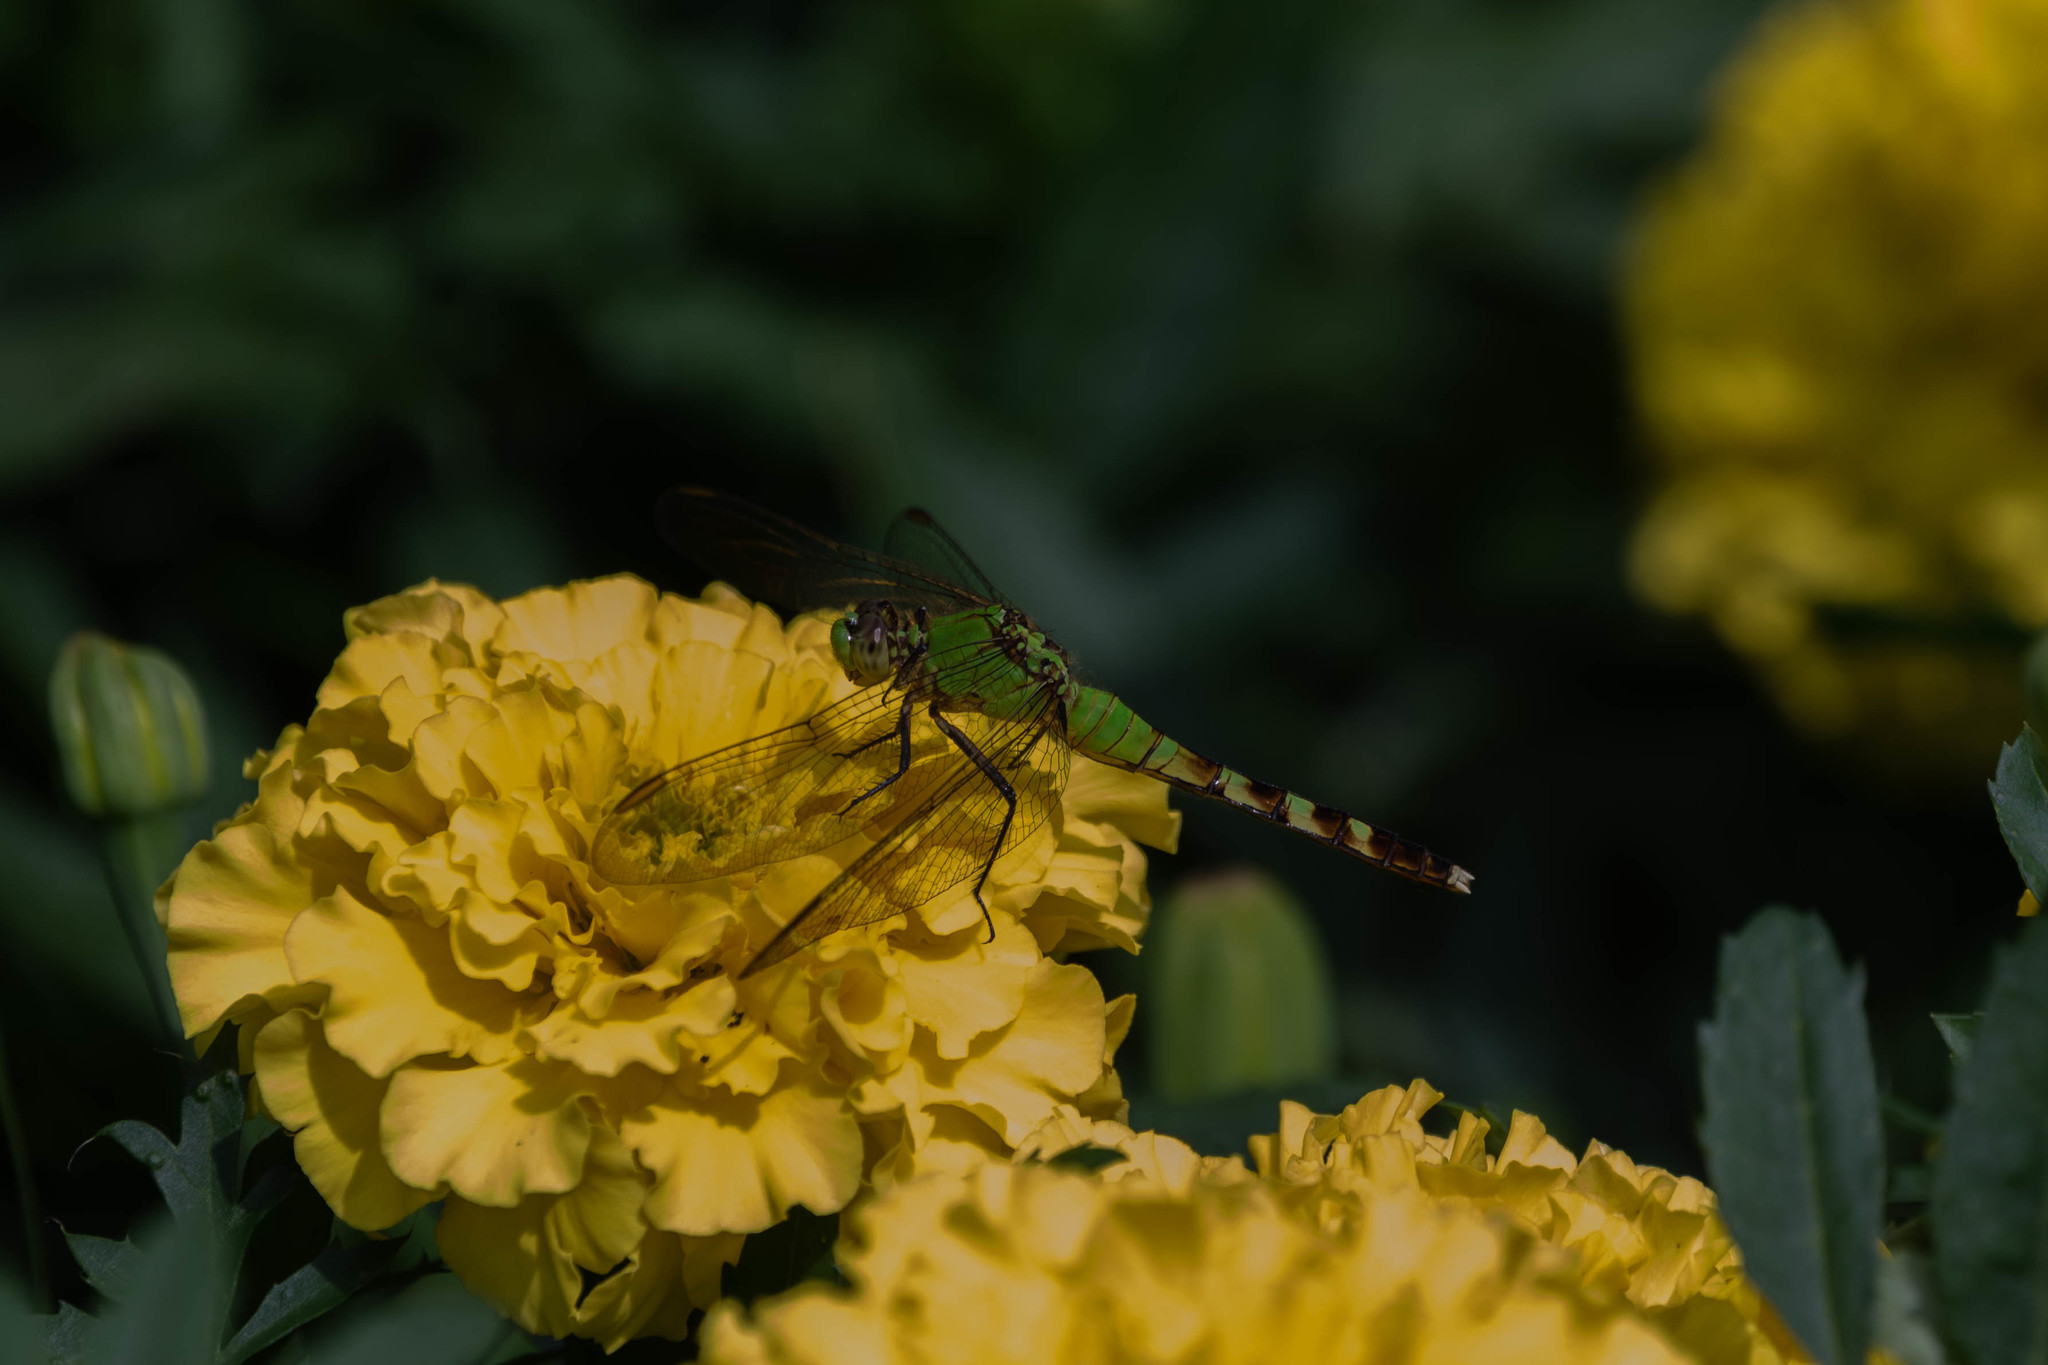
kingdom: Animalia
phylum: Arthropoda
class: Insecta
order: Odonata
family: Libellulidae
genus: Erythemis
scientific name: Erythemis simplicicollis
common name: Eastern pondhawk
